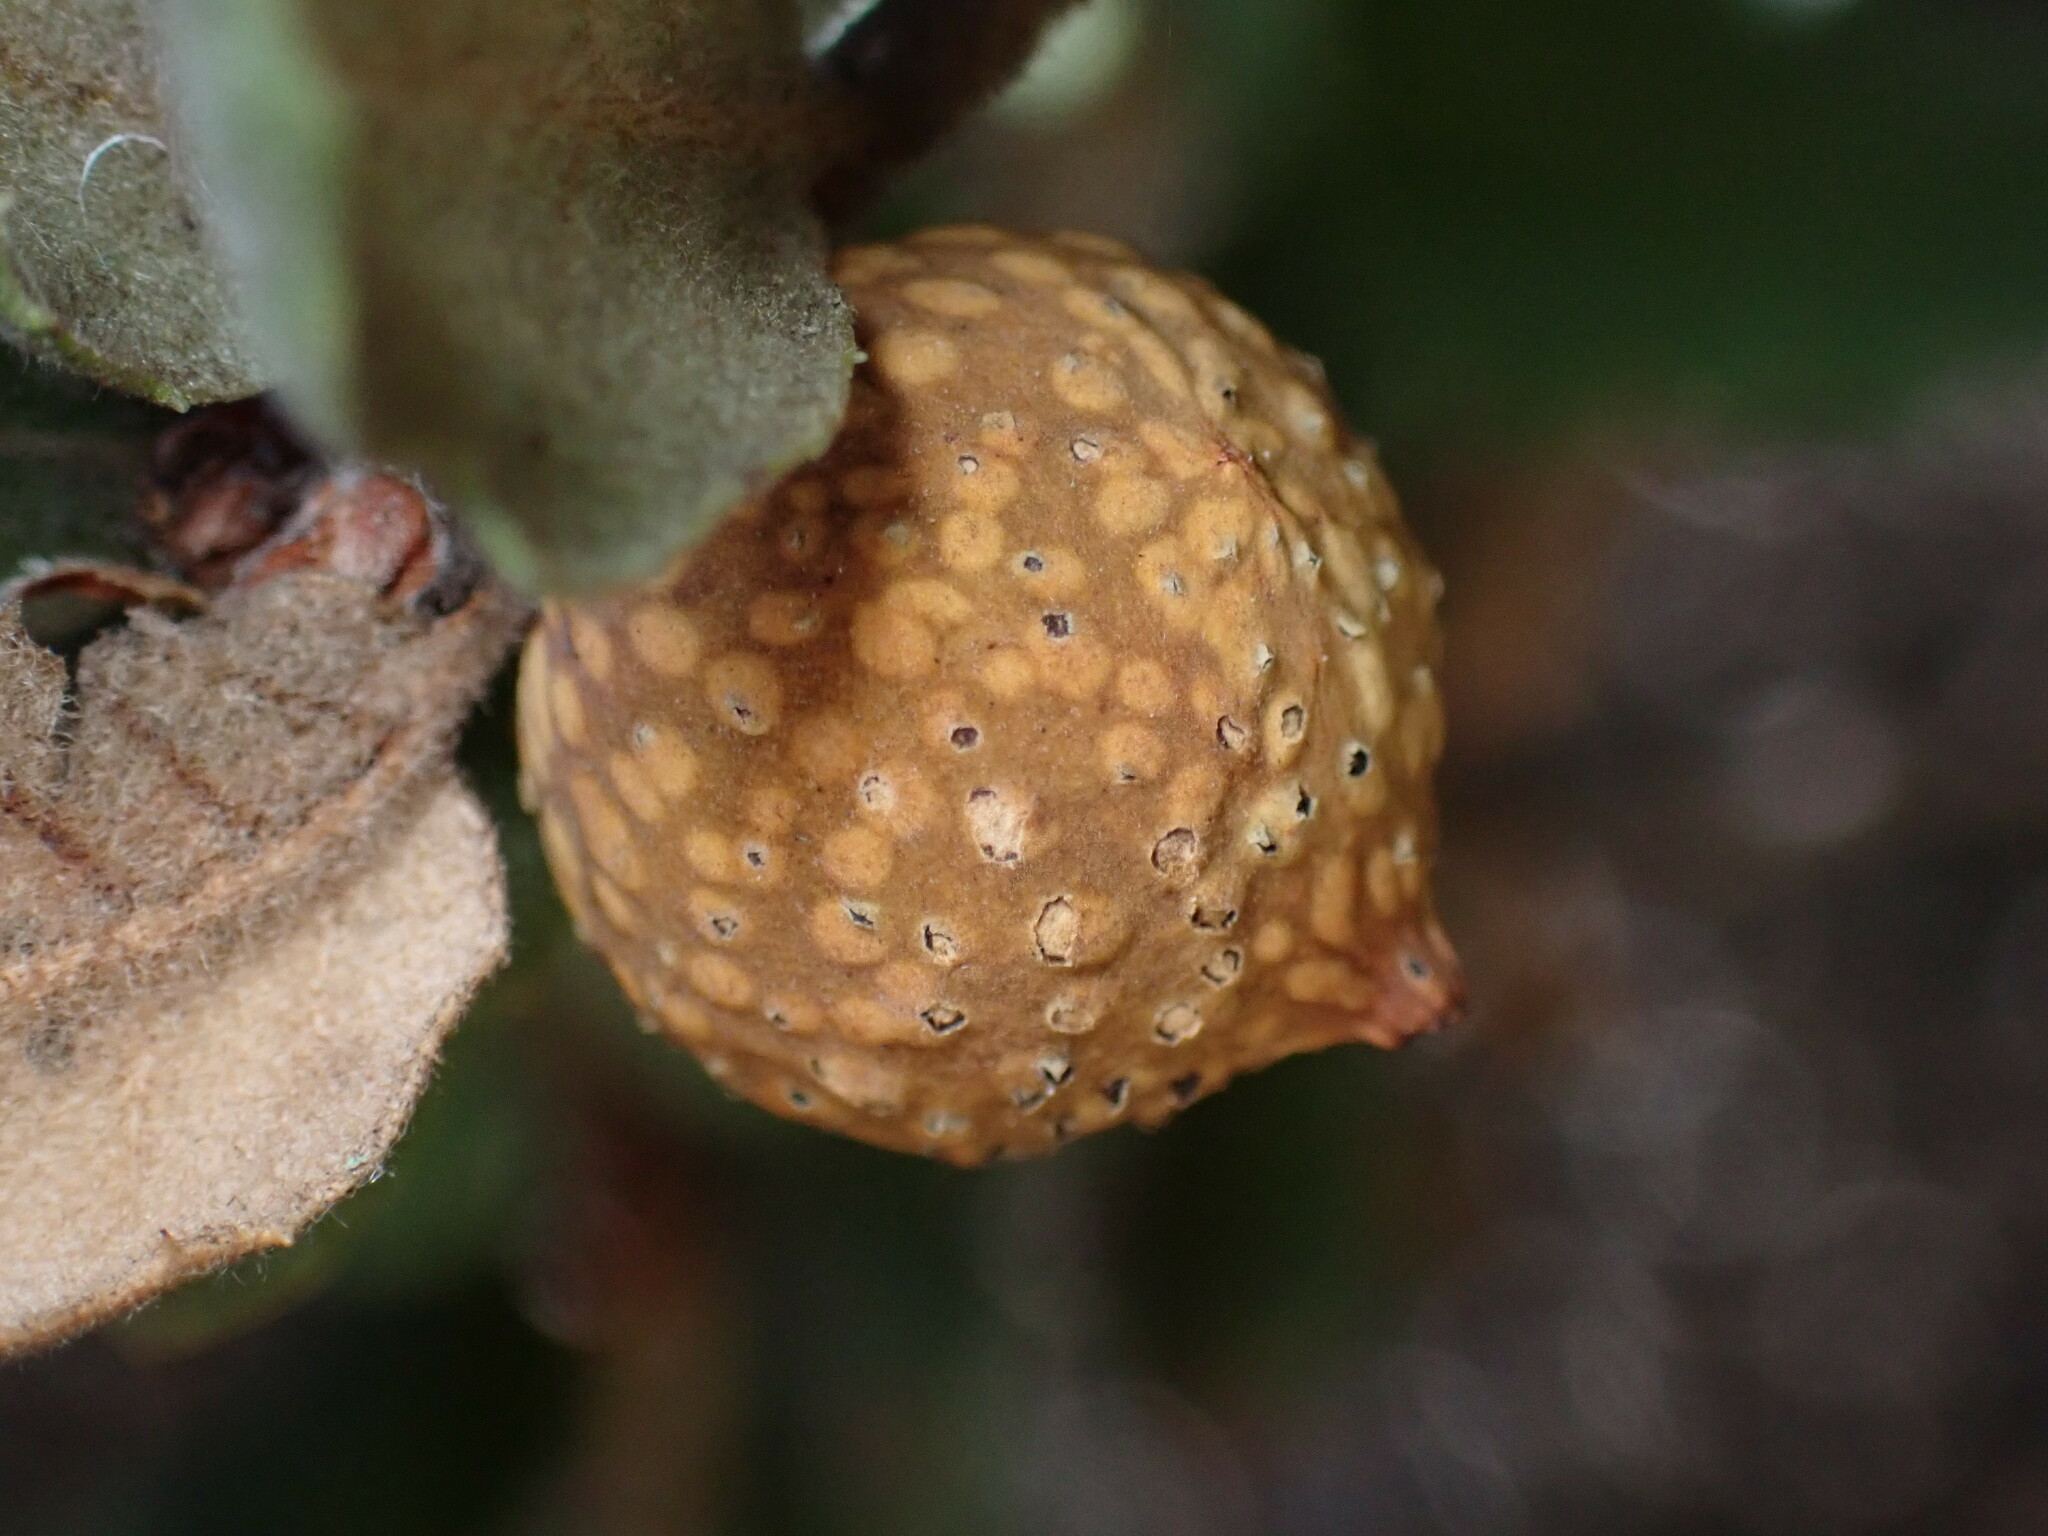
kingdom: Animalia
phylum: Arthropoda
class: Insecta
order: Hymenoptera
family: Cynipidae
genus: Burnettweldia
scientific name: Burnettweldia
